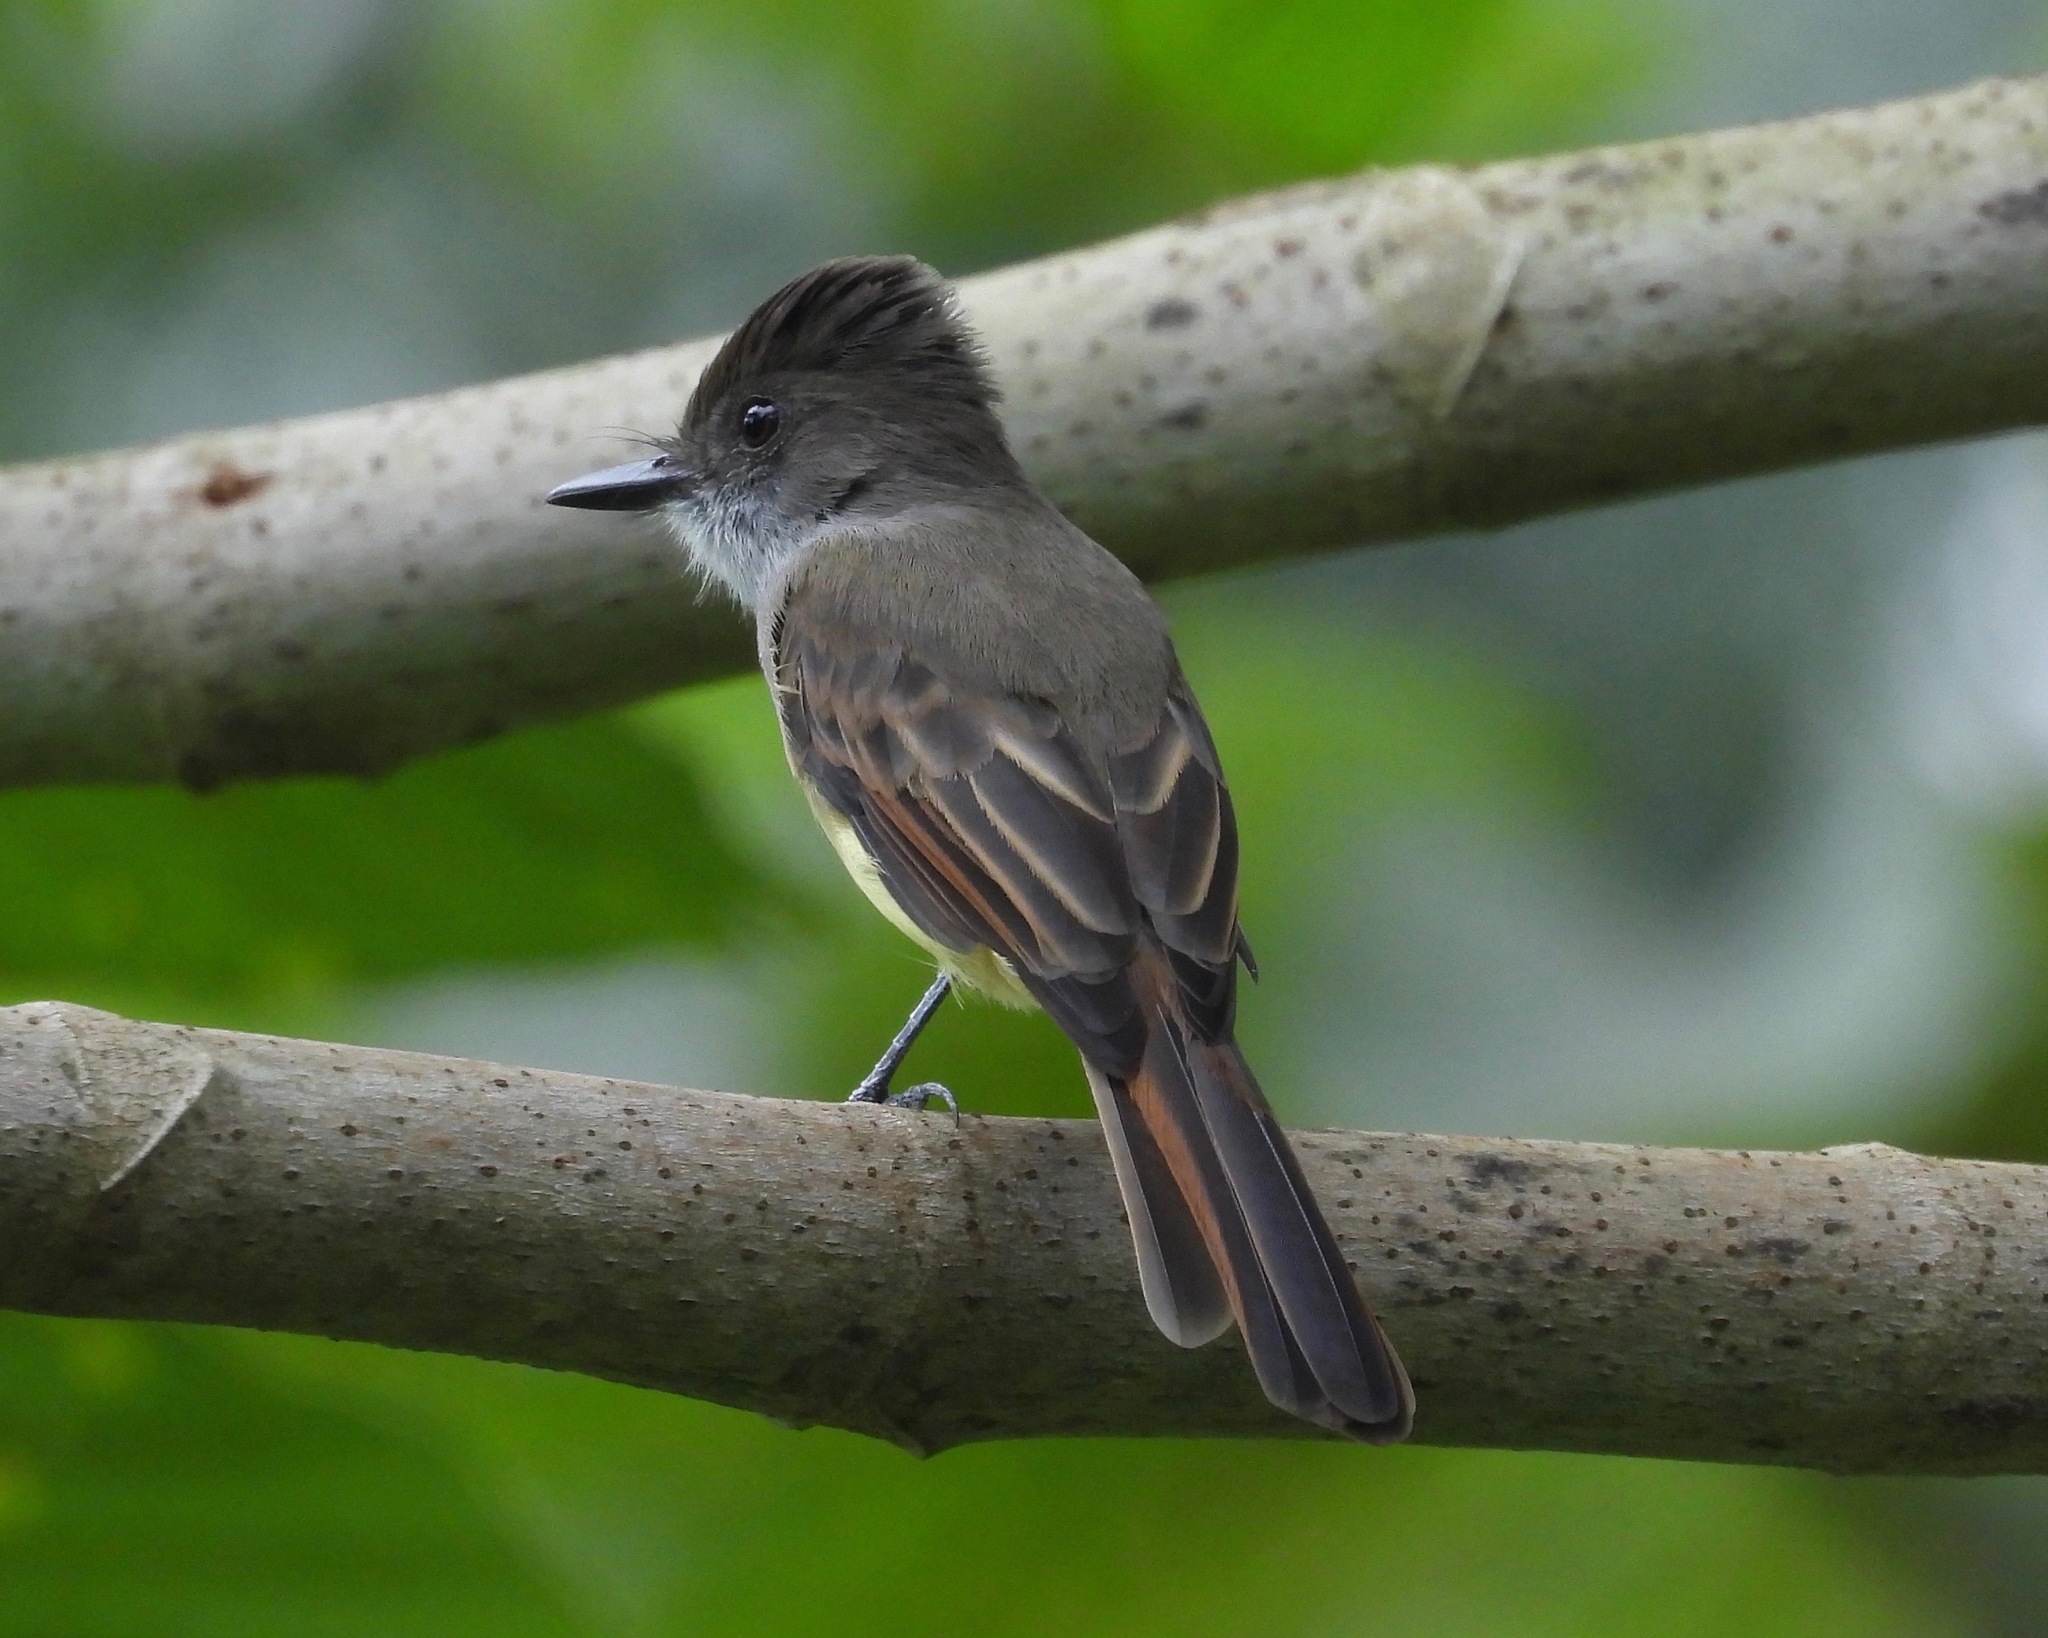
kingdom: Animalia
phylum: Chordata
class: Aves
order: Passeriformes
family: Tyrannidae
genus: Myiarchus
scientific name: Myiarchus tuberculifer
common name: Dusky-capped flycatcher
